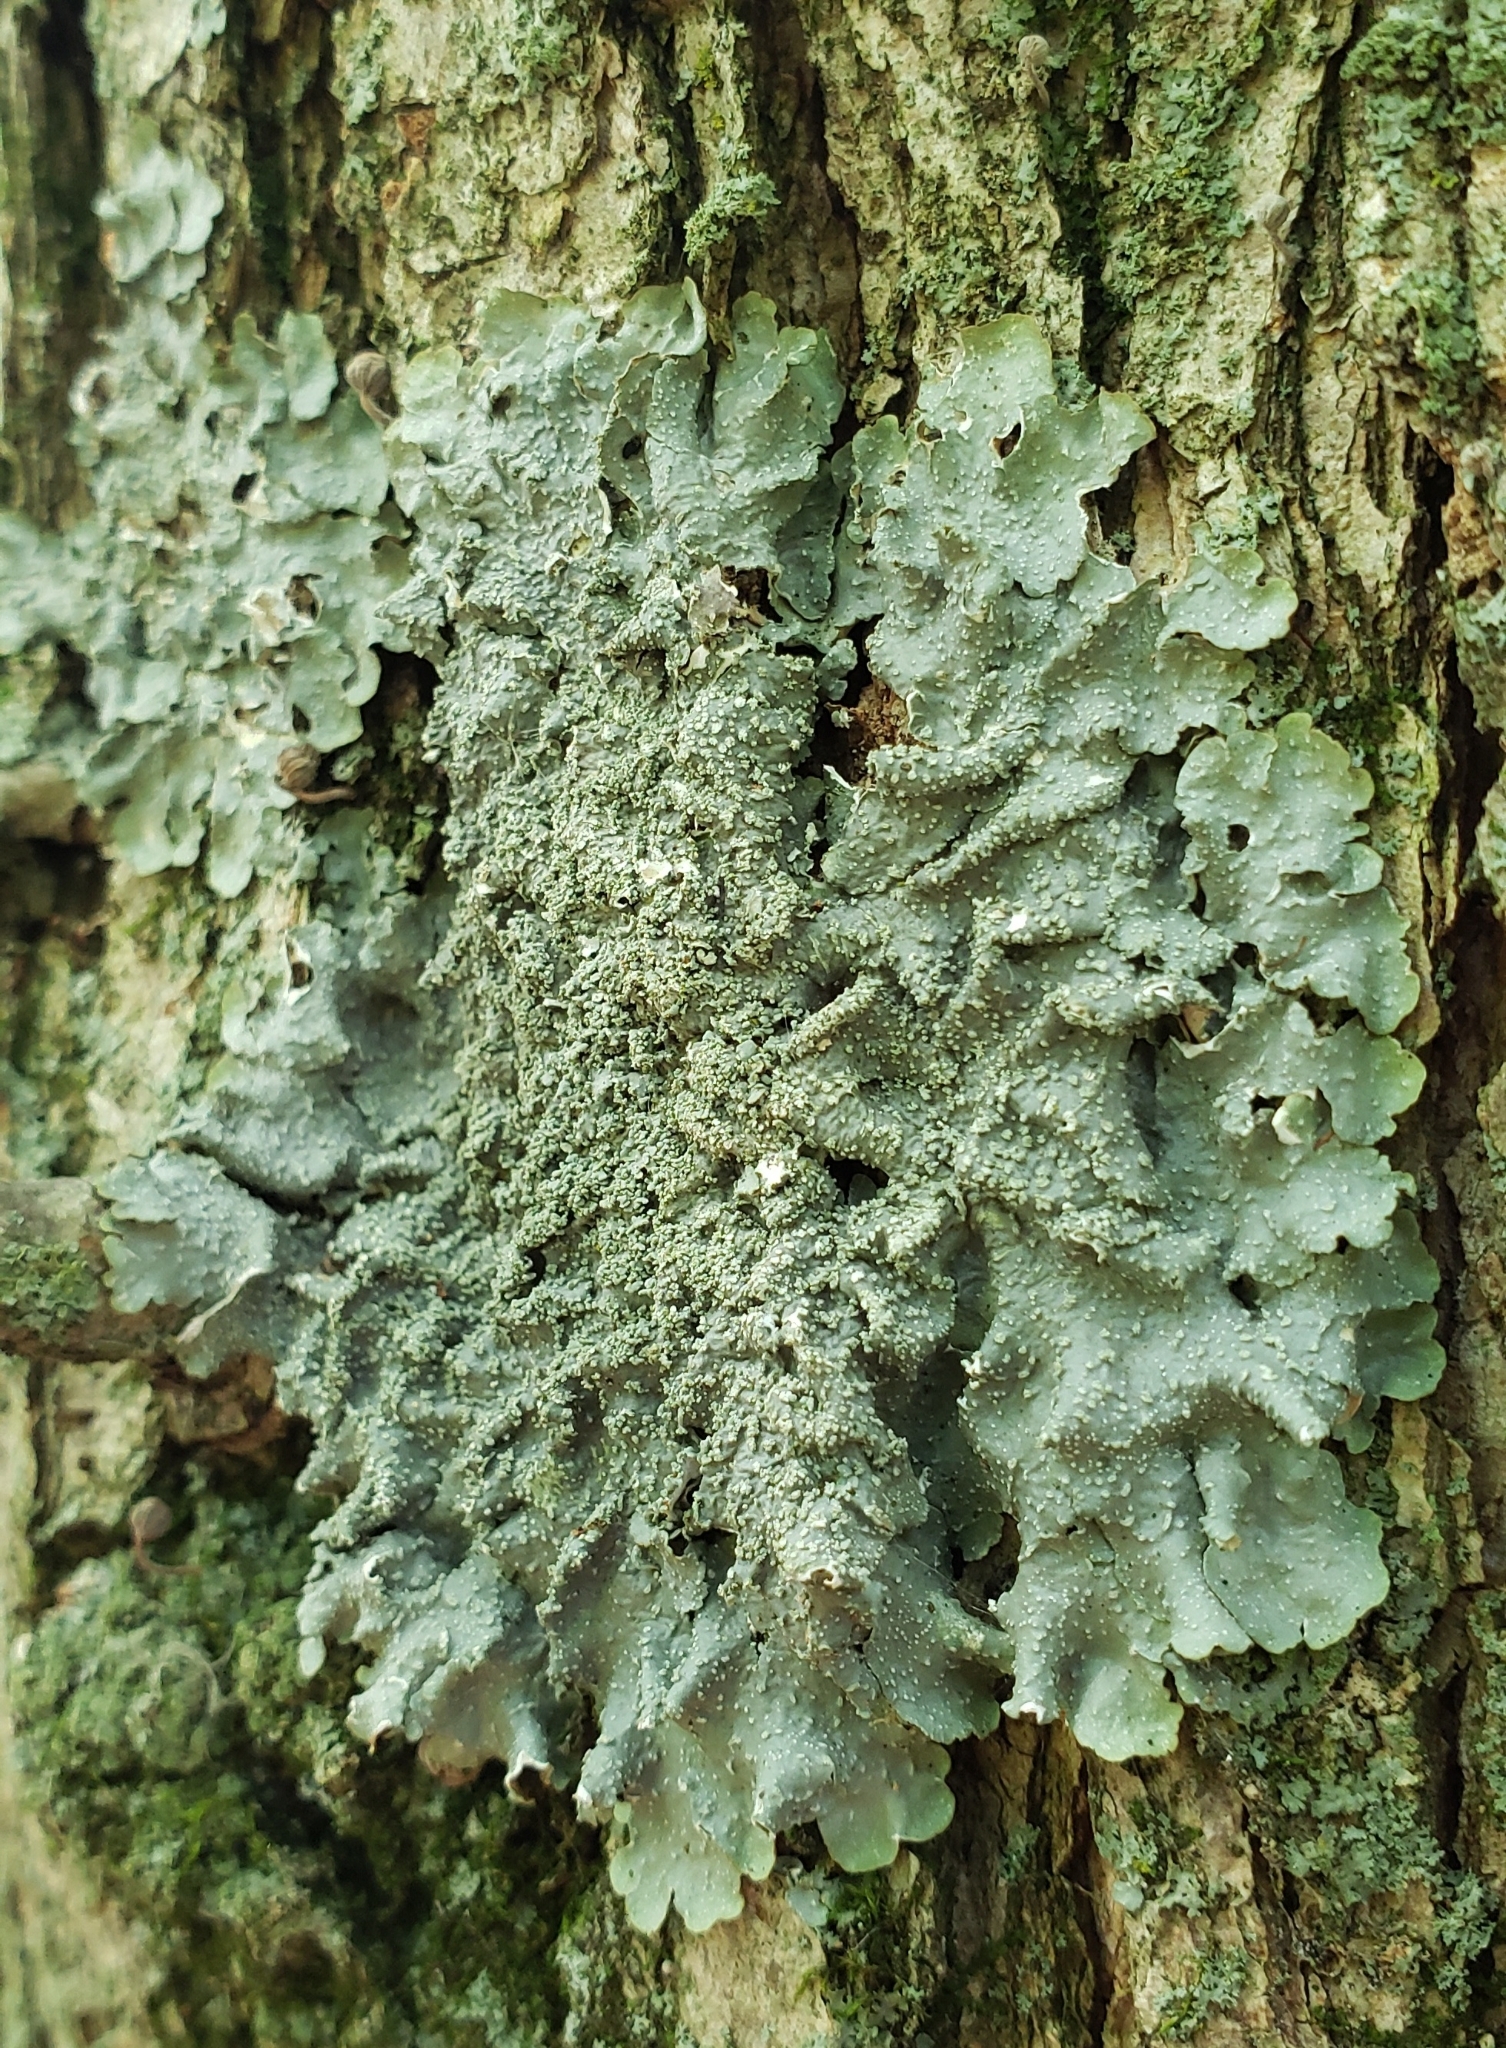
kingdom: Fungi
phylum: Ascomycota
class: Lecanoromycetes
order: Lecanorales
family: Parmeliaceae
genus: Punctelia
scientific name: Punctelia missouriensis
